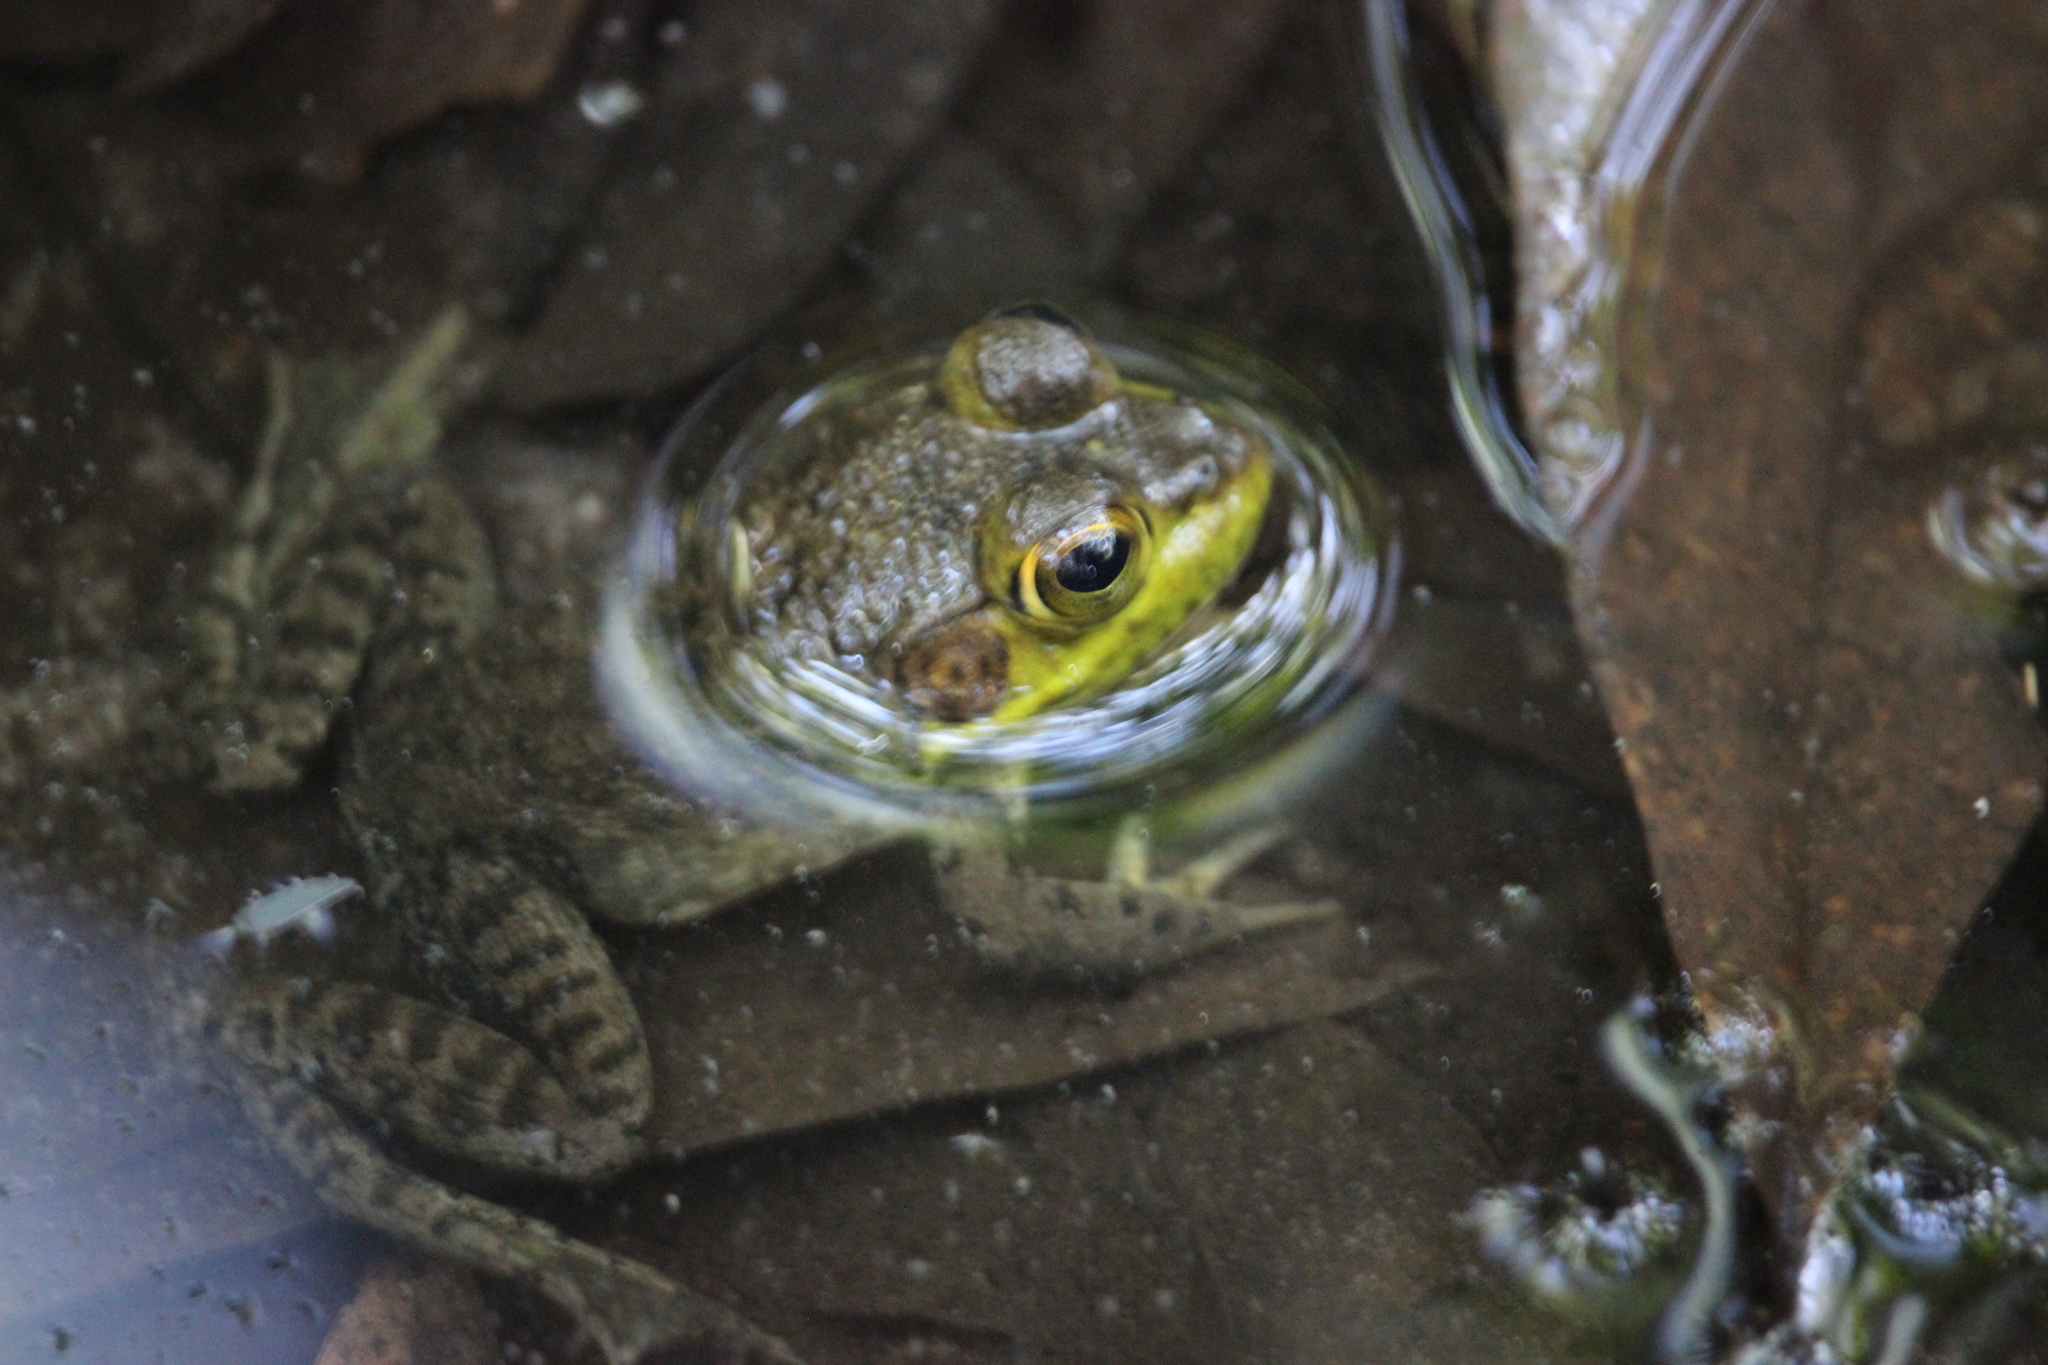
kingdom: Animalia
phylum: Chordata
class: Amphibia
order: Anura
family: Ranidae
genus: Lithobates
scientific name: Lithobates catesbeianus
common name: American bullfrog
